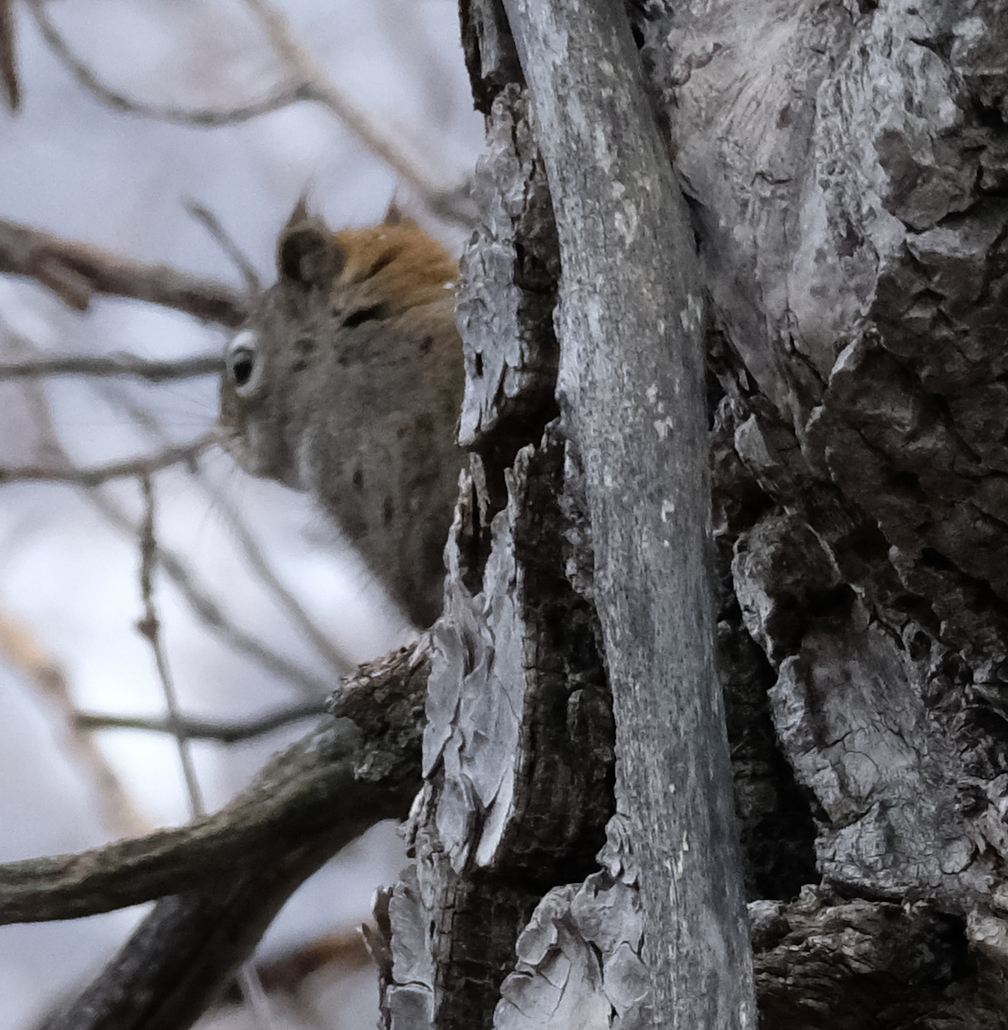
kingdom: Animalia
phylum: Chordata
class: Mammalia
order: Rodentia
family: Sciuridae
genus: Tamiasciurus
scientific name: Tamiasciurus hudsonicus
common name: Red squirrel
